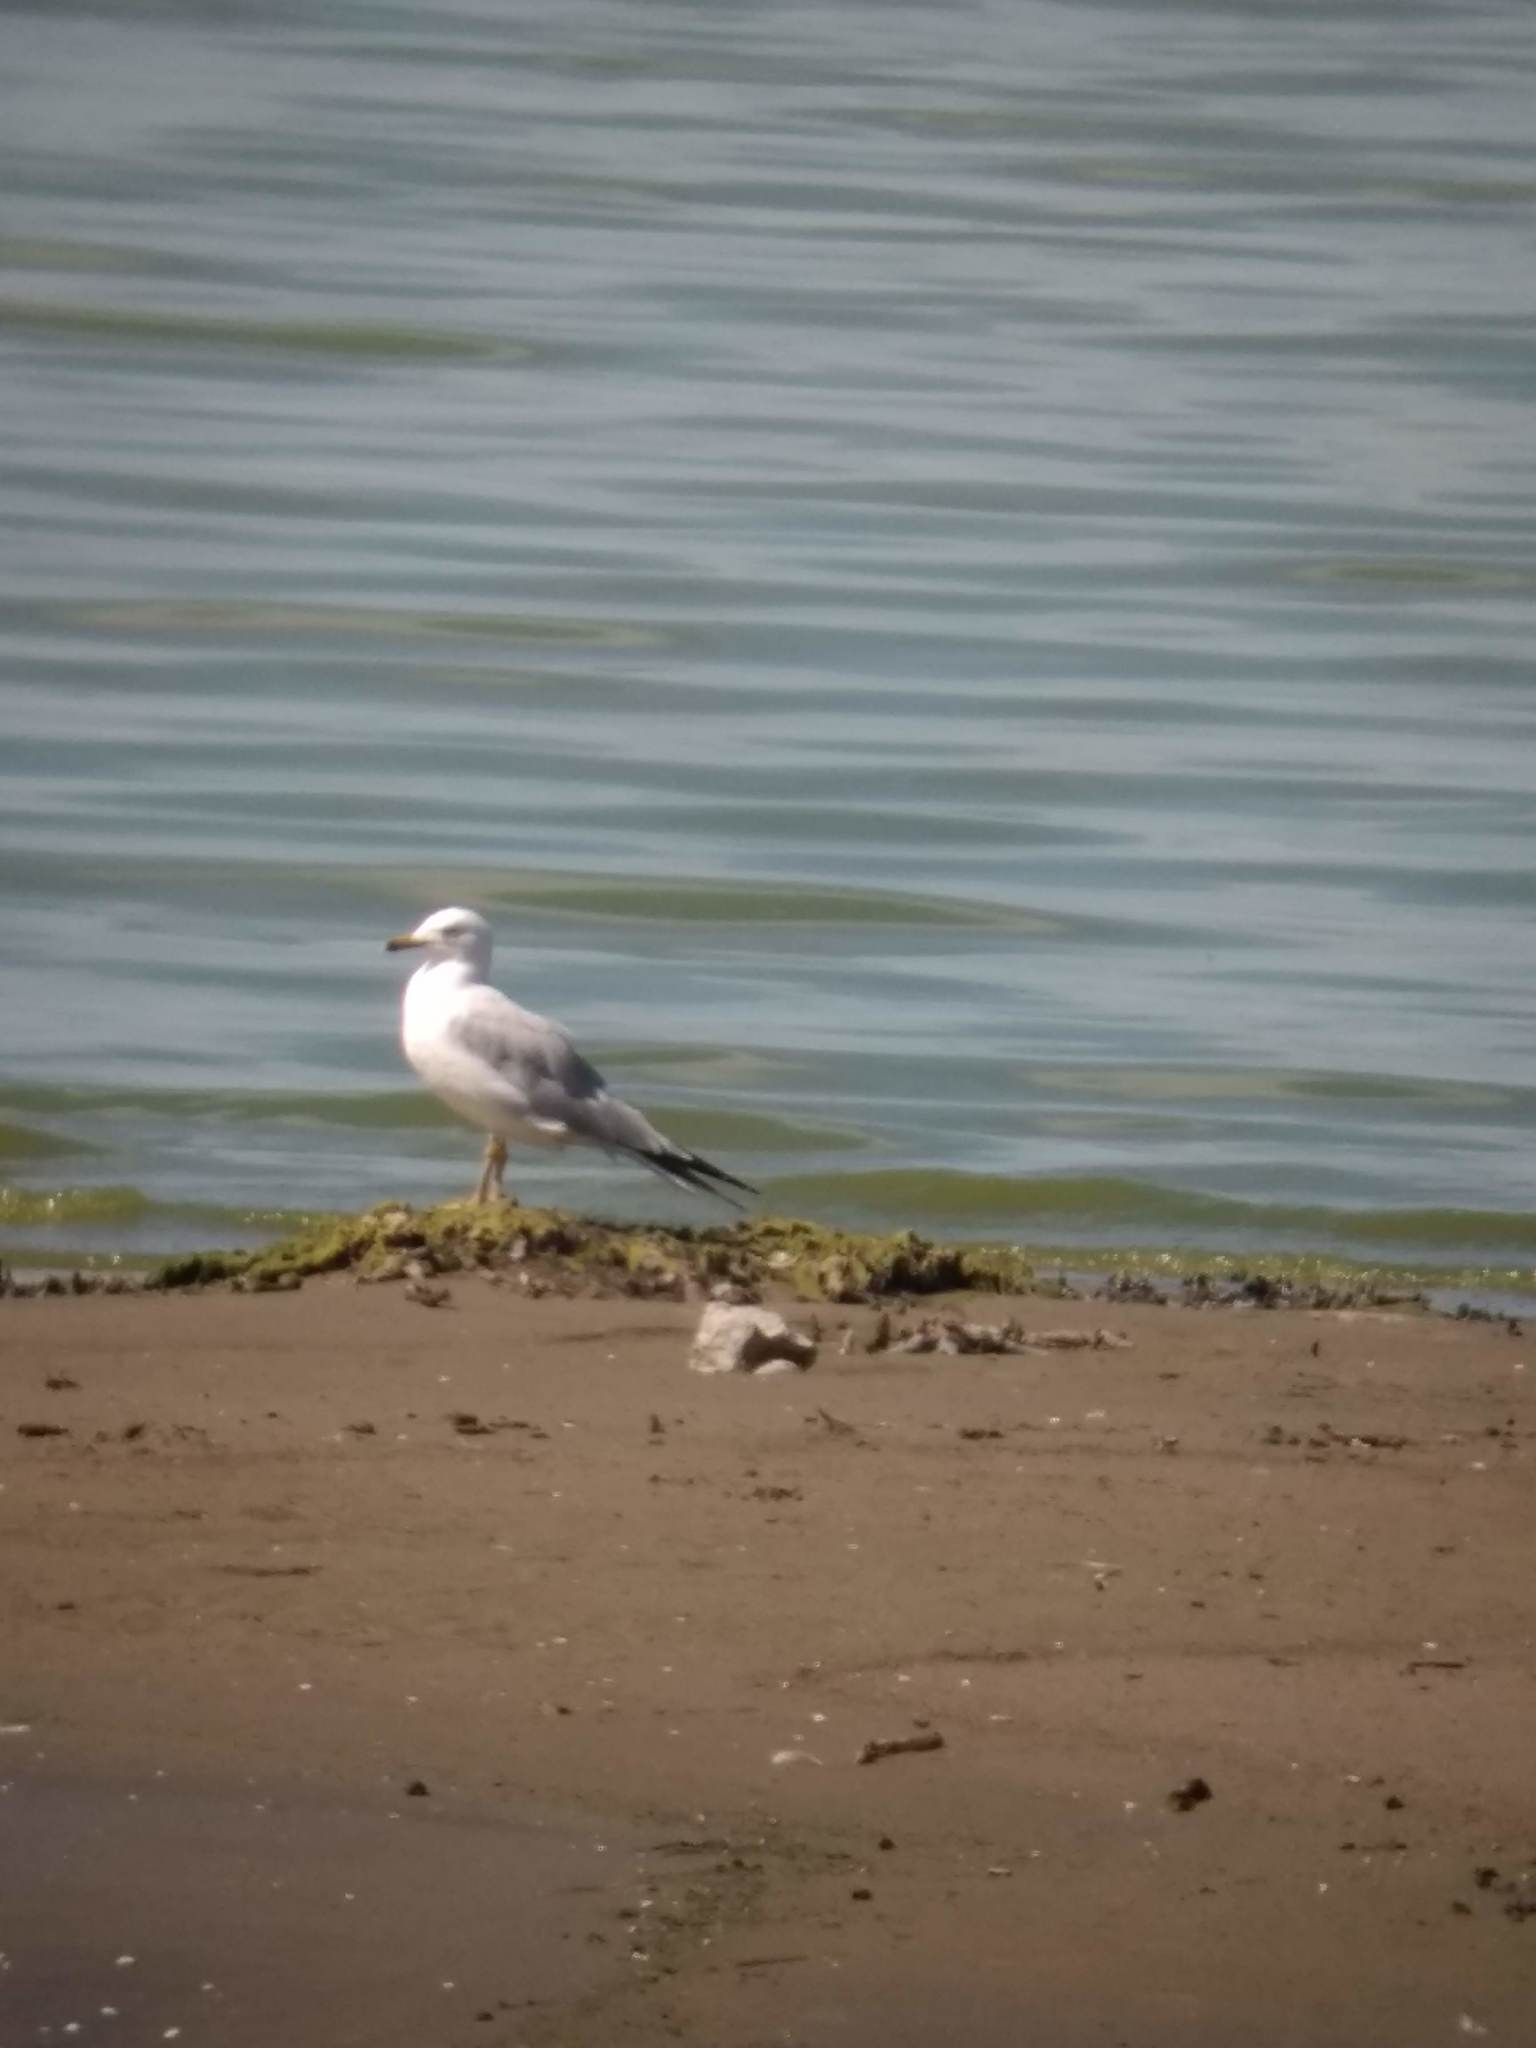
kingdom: Animalia
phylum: Chordata
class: Aves
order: Charadriiformes
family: Laridae
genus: Larus
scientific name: Larus delawarensis
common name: Ring-billed gull
